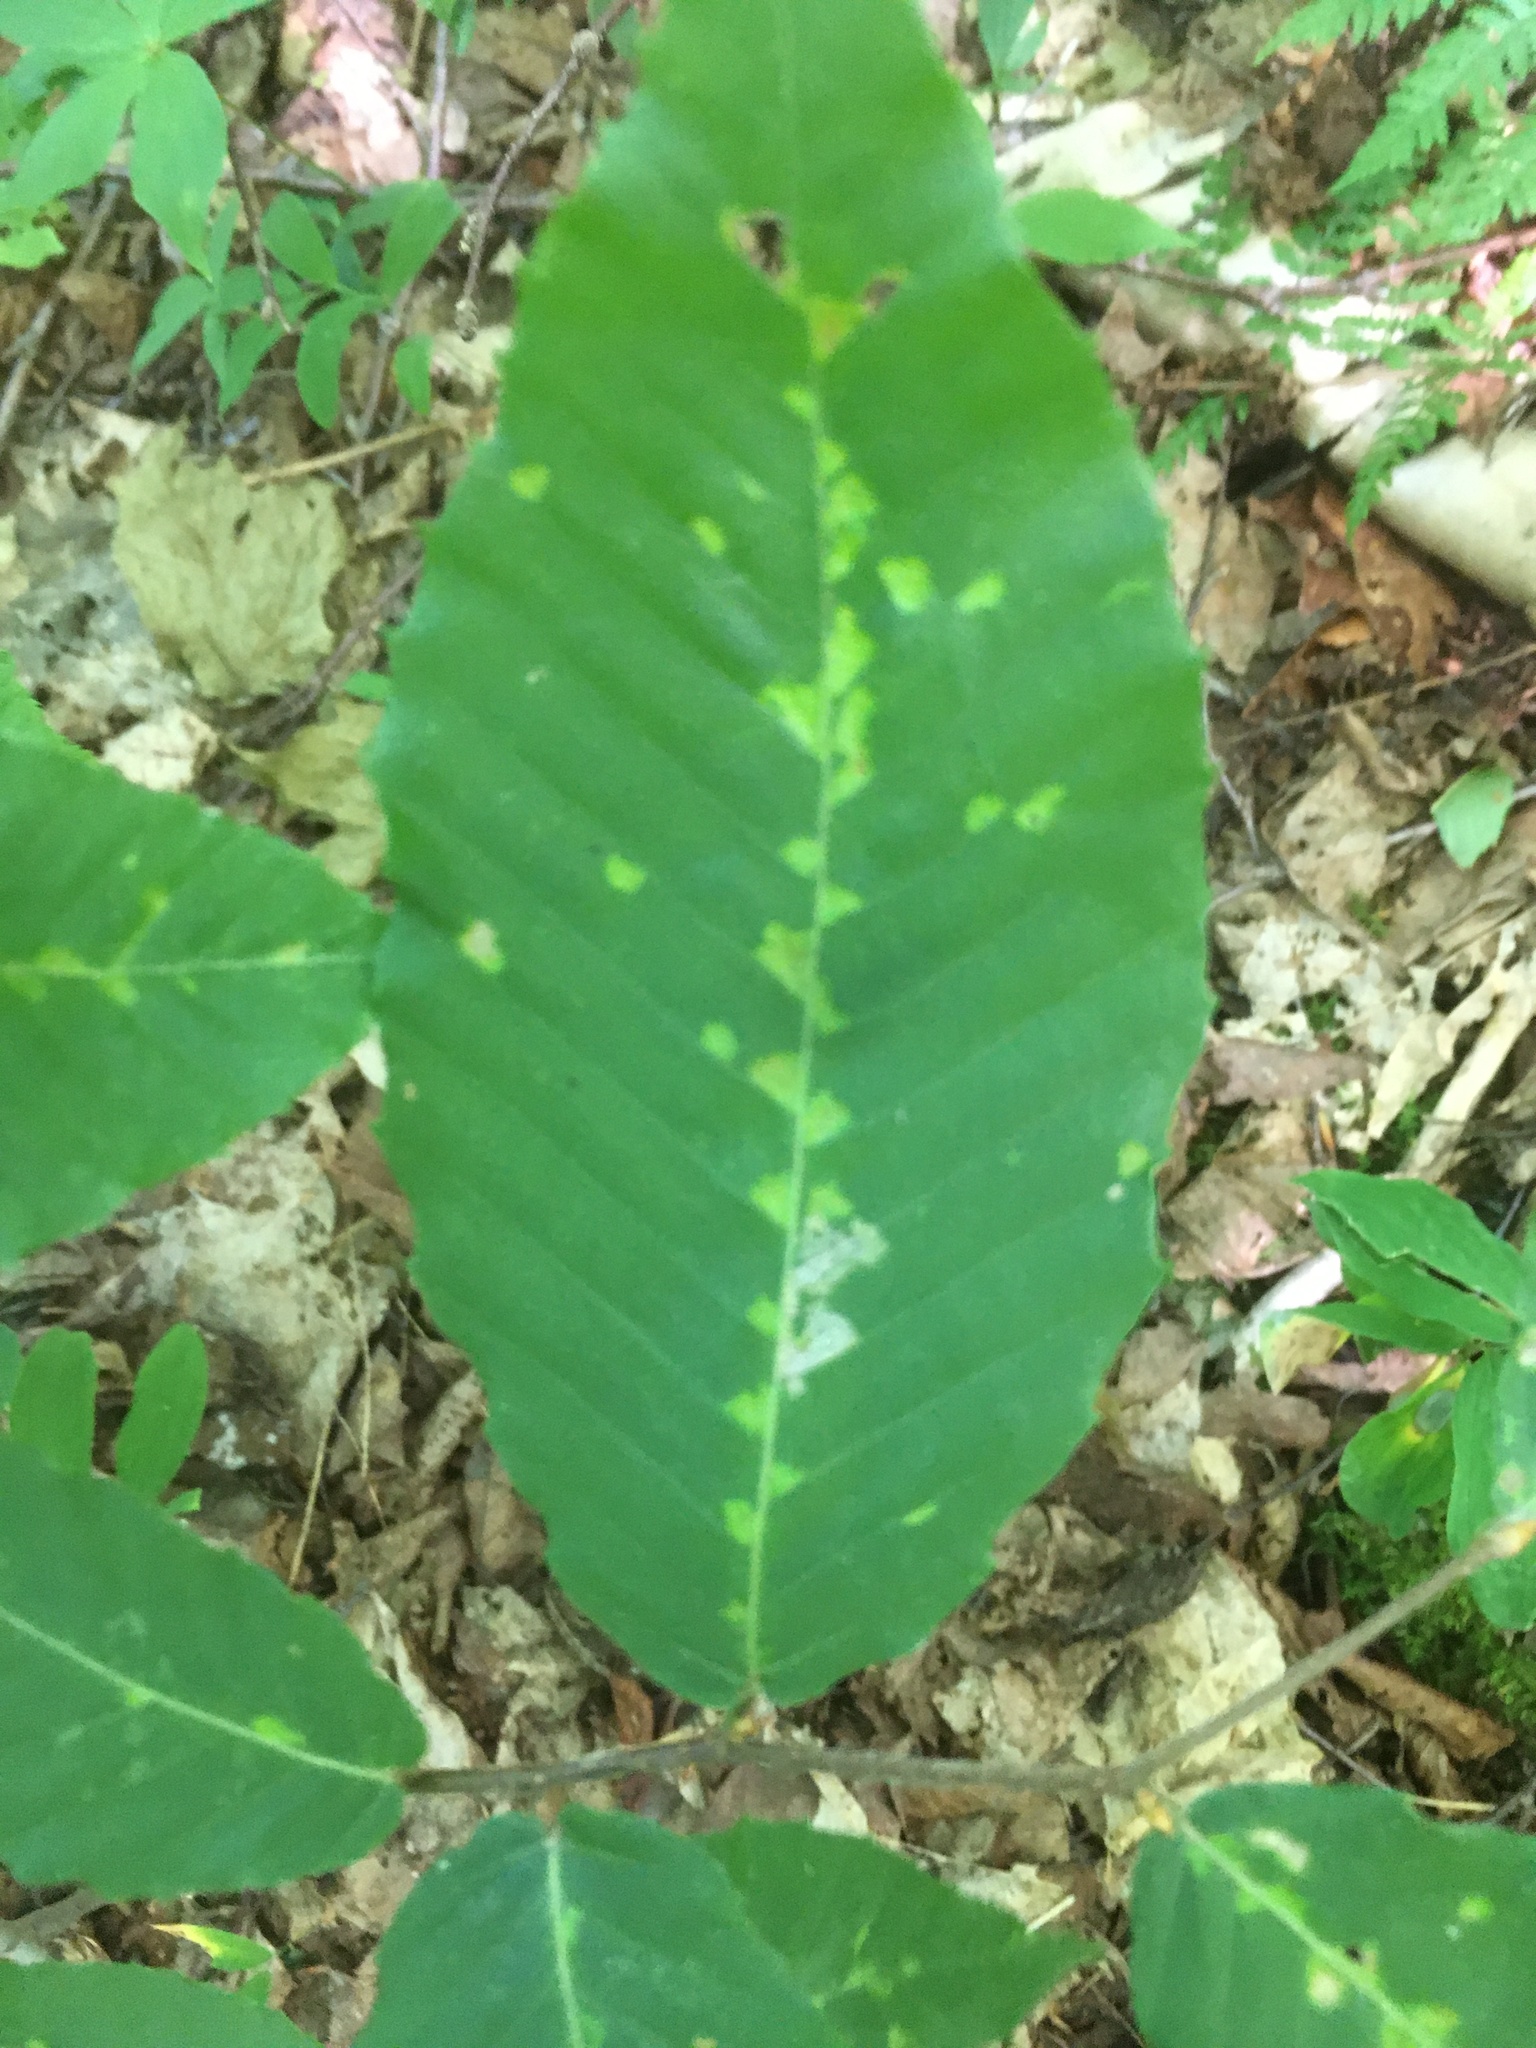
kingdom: Animalia
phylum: Arthropoda
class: Arachnida
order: Trombidiformes
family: Eriophyidae
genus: Acalitus
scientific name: Acalitus
